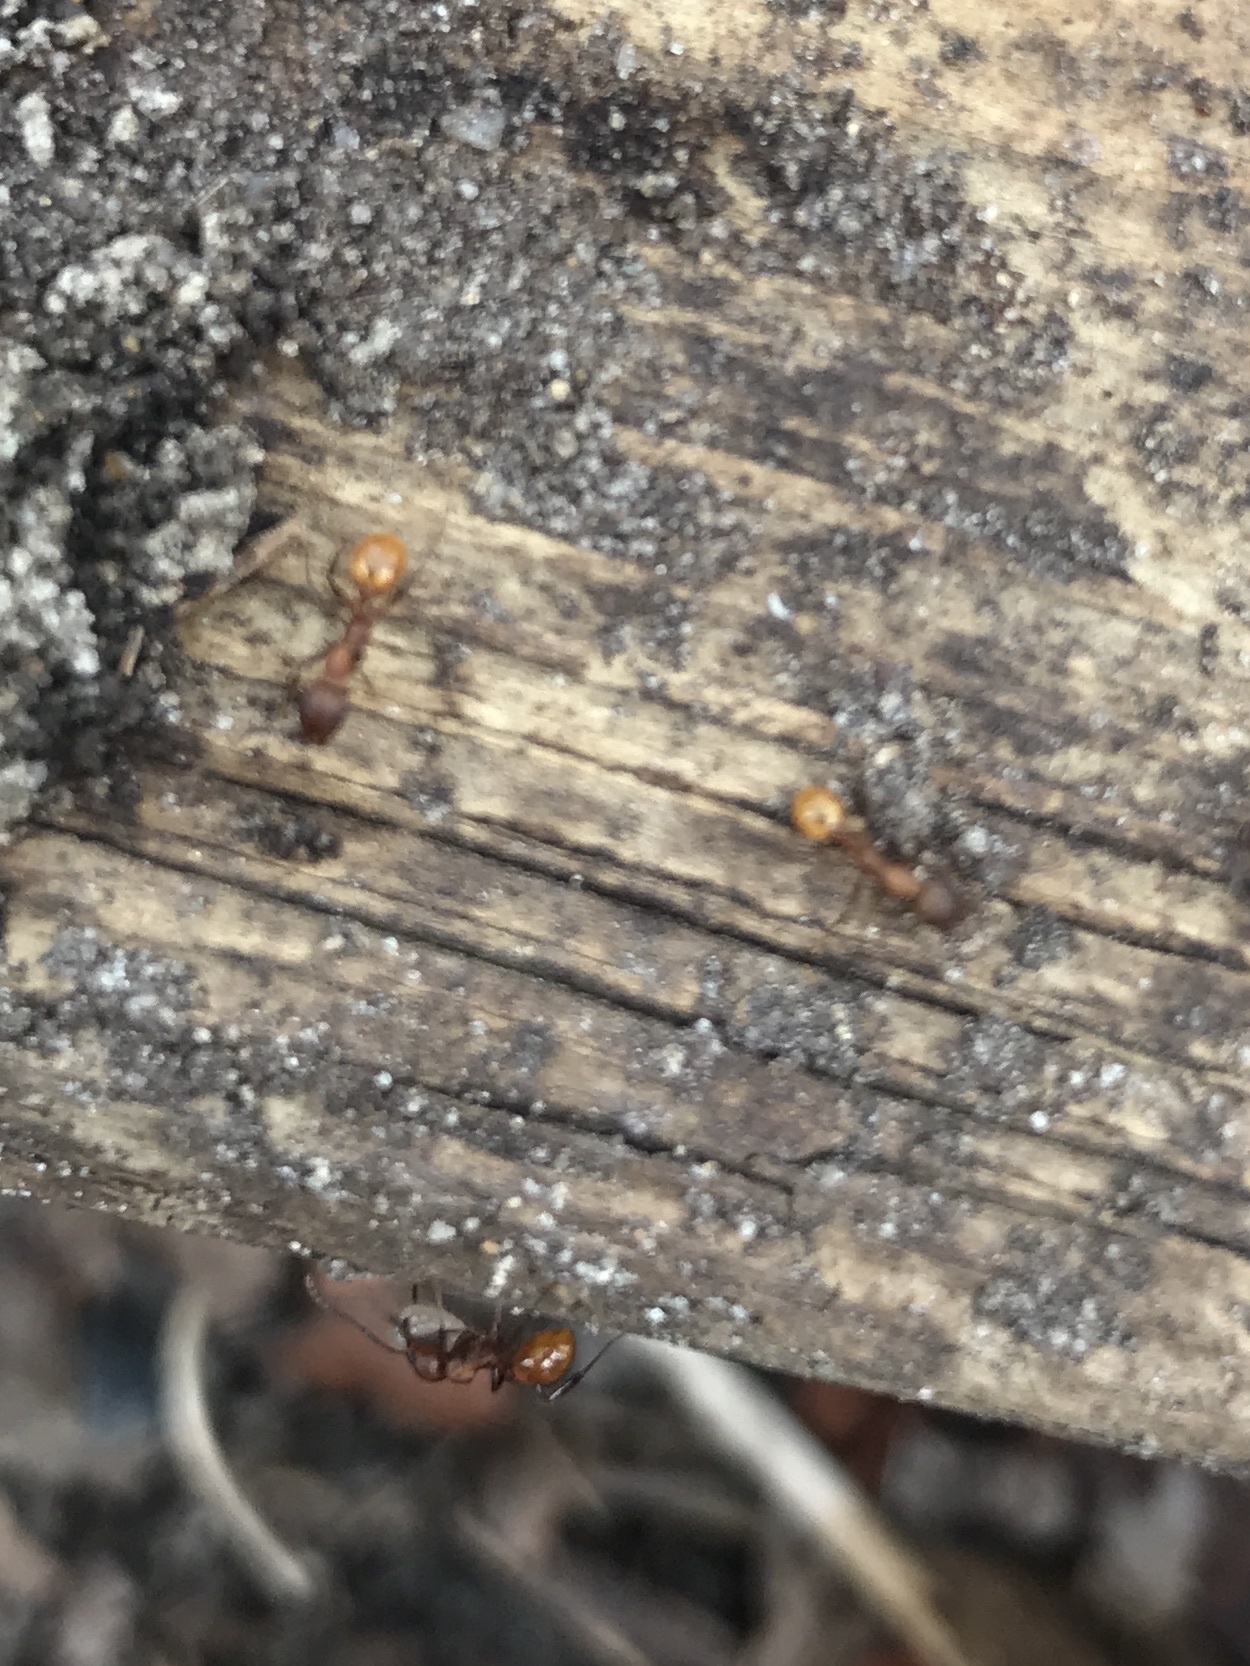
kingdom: Animalia
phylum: Arthropoda
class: Insecta
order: Hymenoptera
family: Formicidae
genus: Aphaenogaster
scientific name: Aphaenogaster tennesseensis
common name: Tennessee thread-waisted ant
